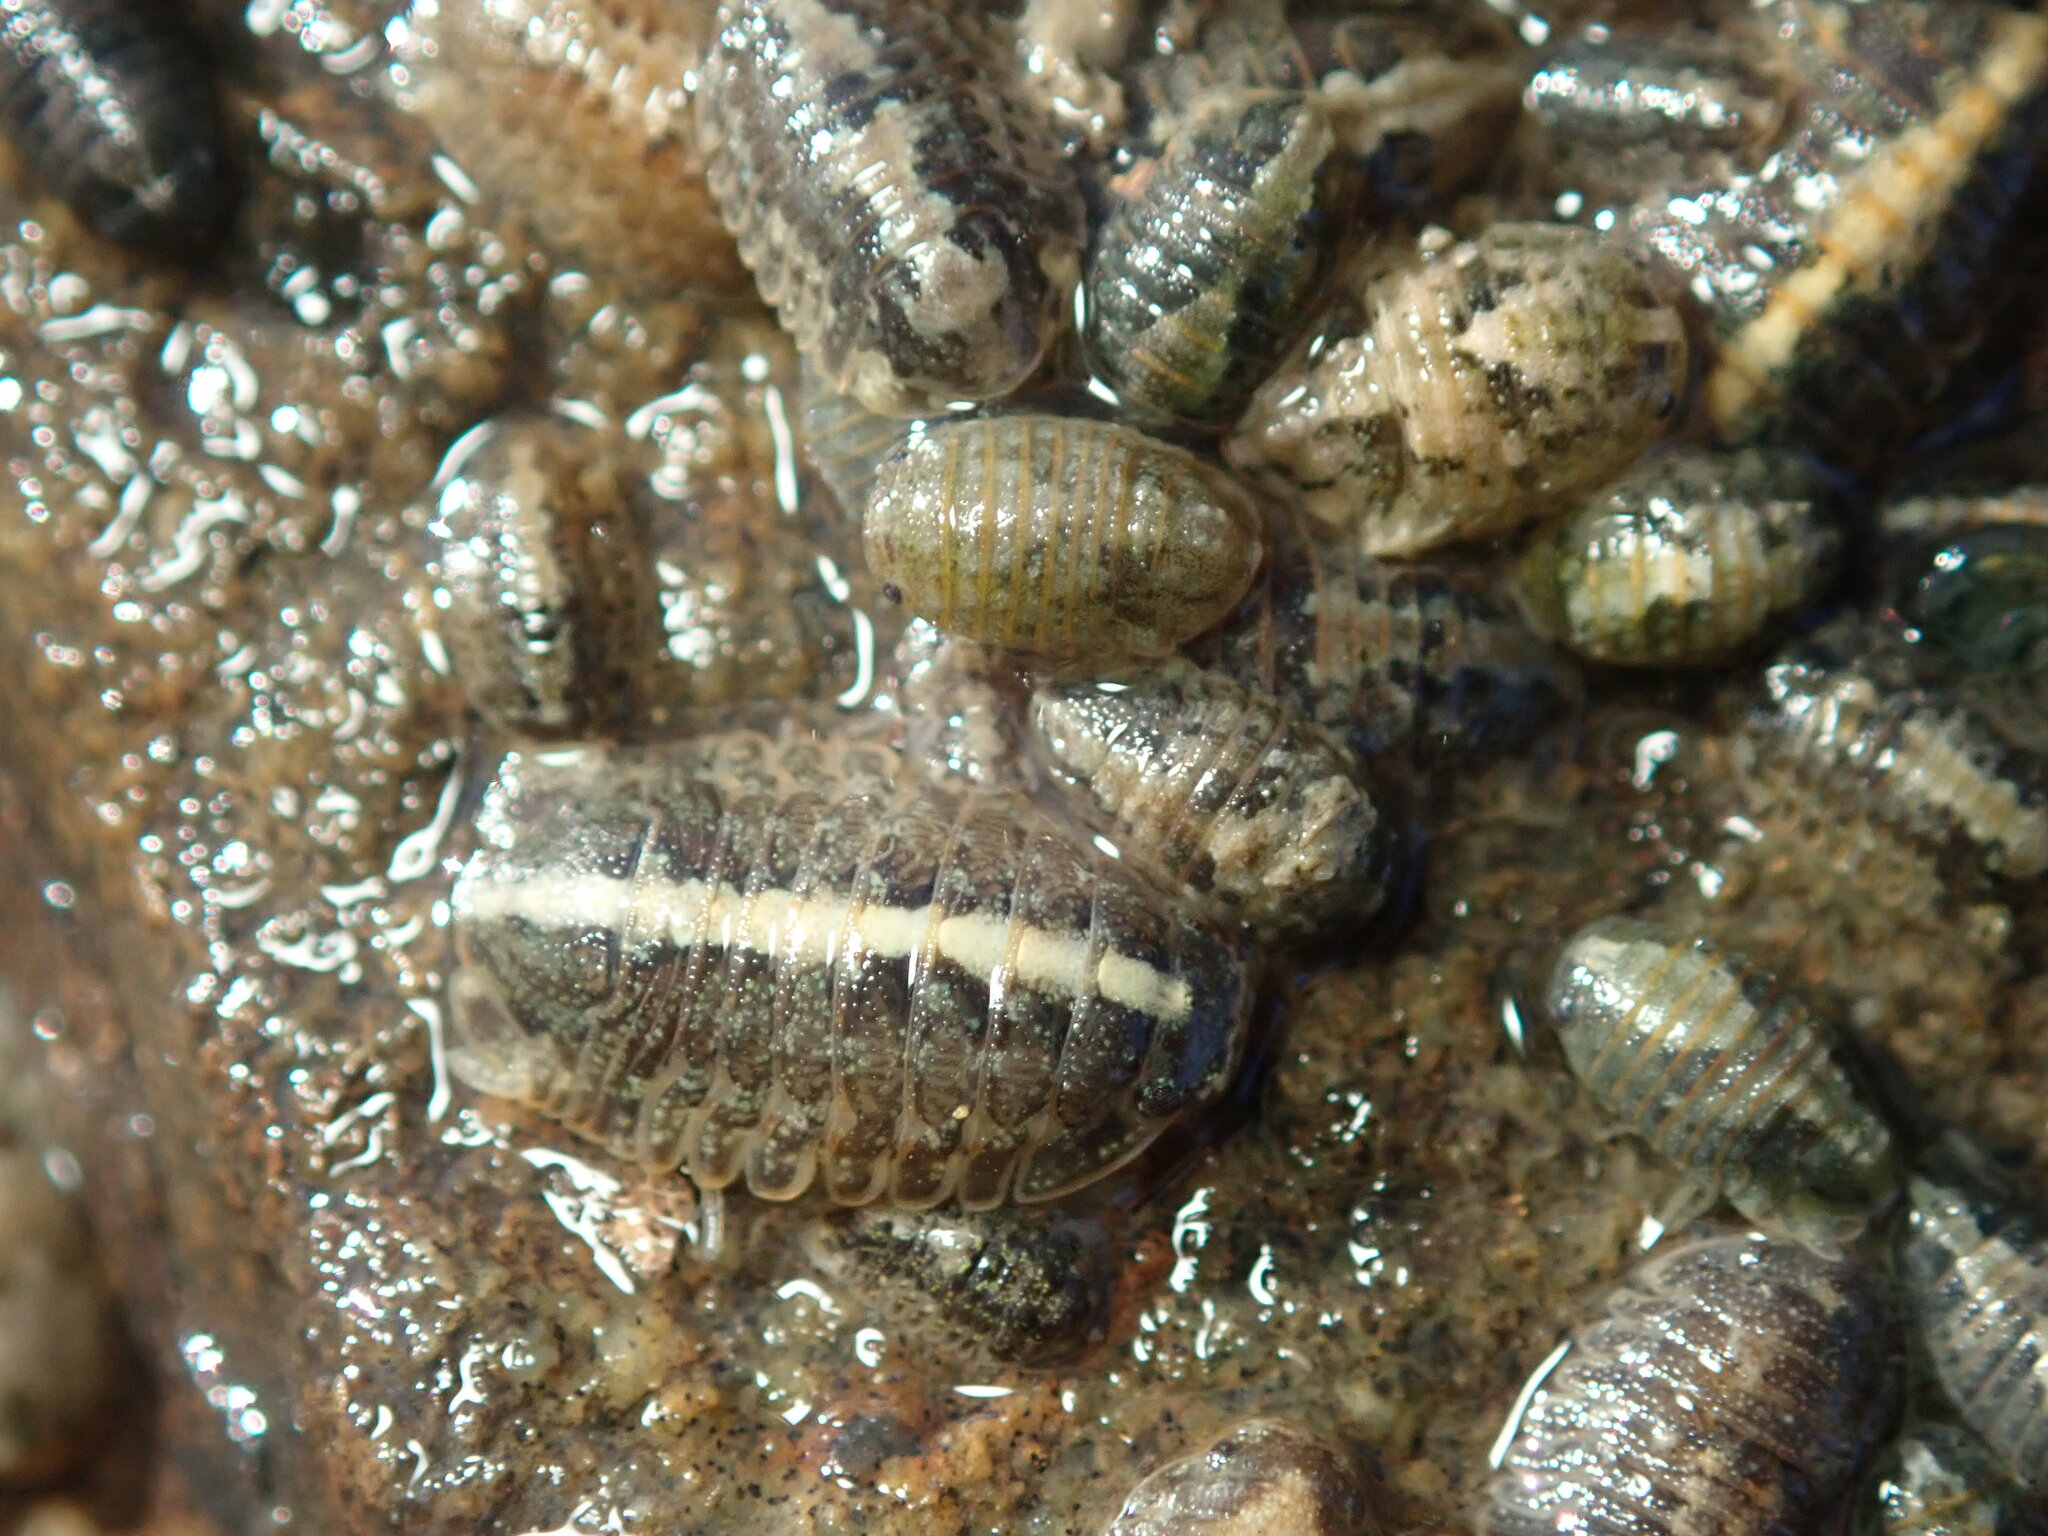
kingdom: Animalia
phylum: Arthropoda
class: Malacostraca
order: Isopoda
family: Sphaeromatidae
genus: Gnorimosphaeroma
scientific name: Gnorimosphaeroma oregonense
